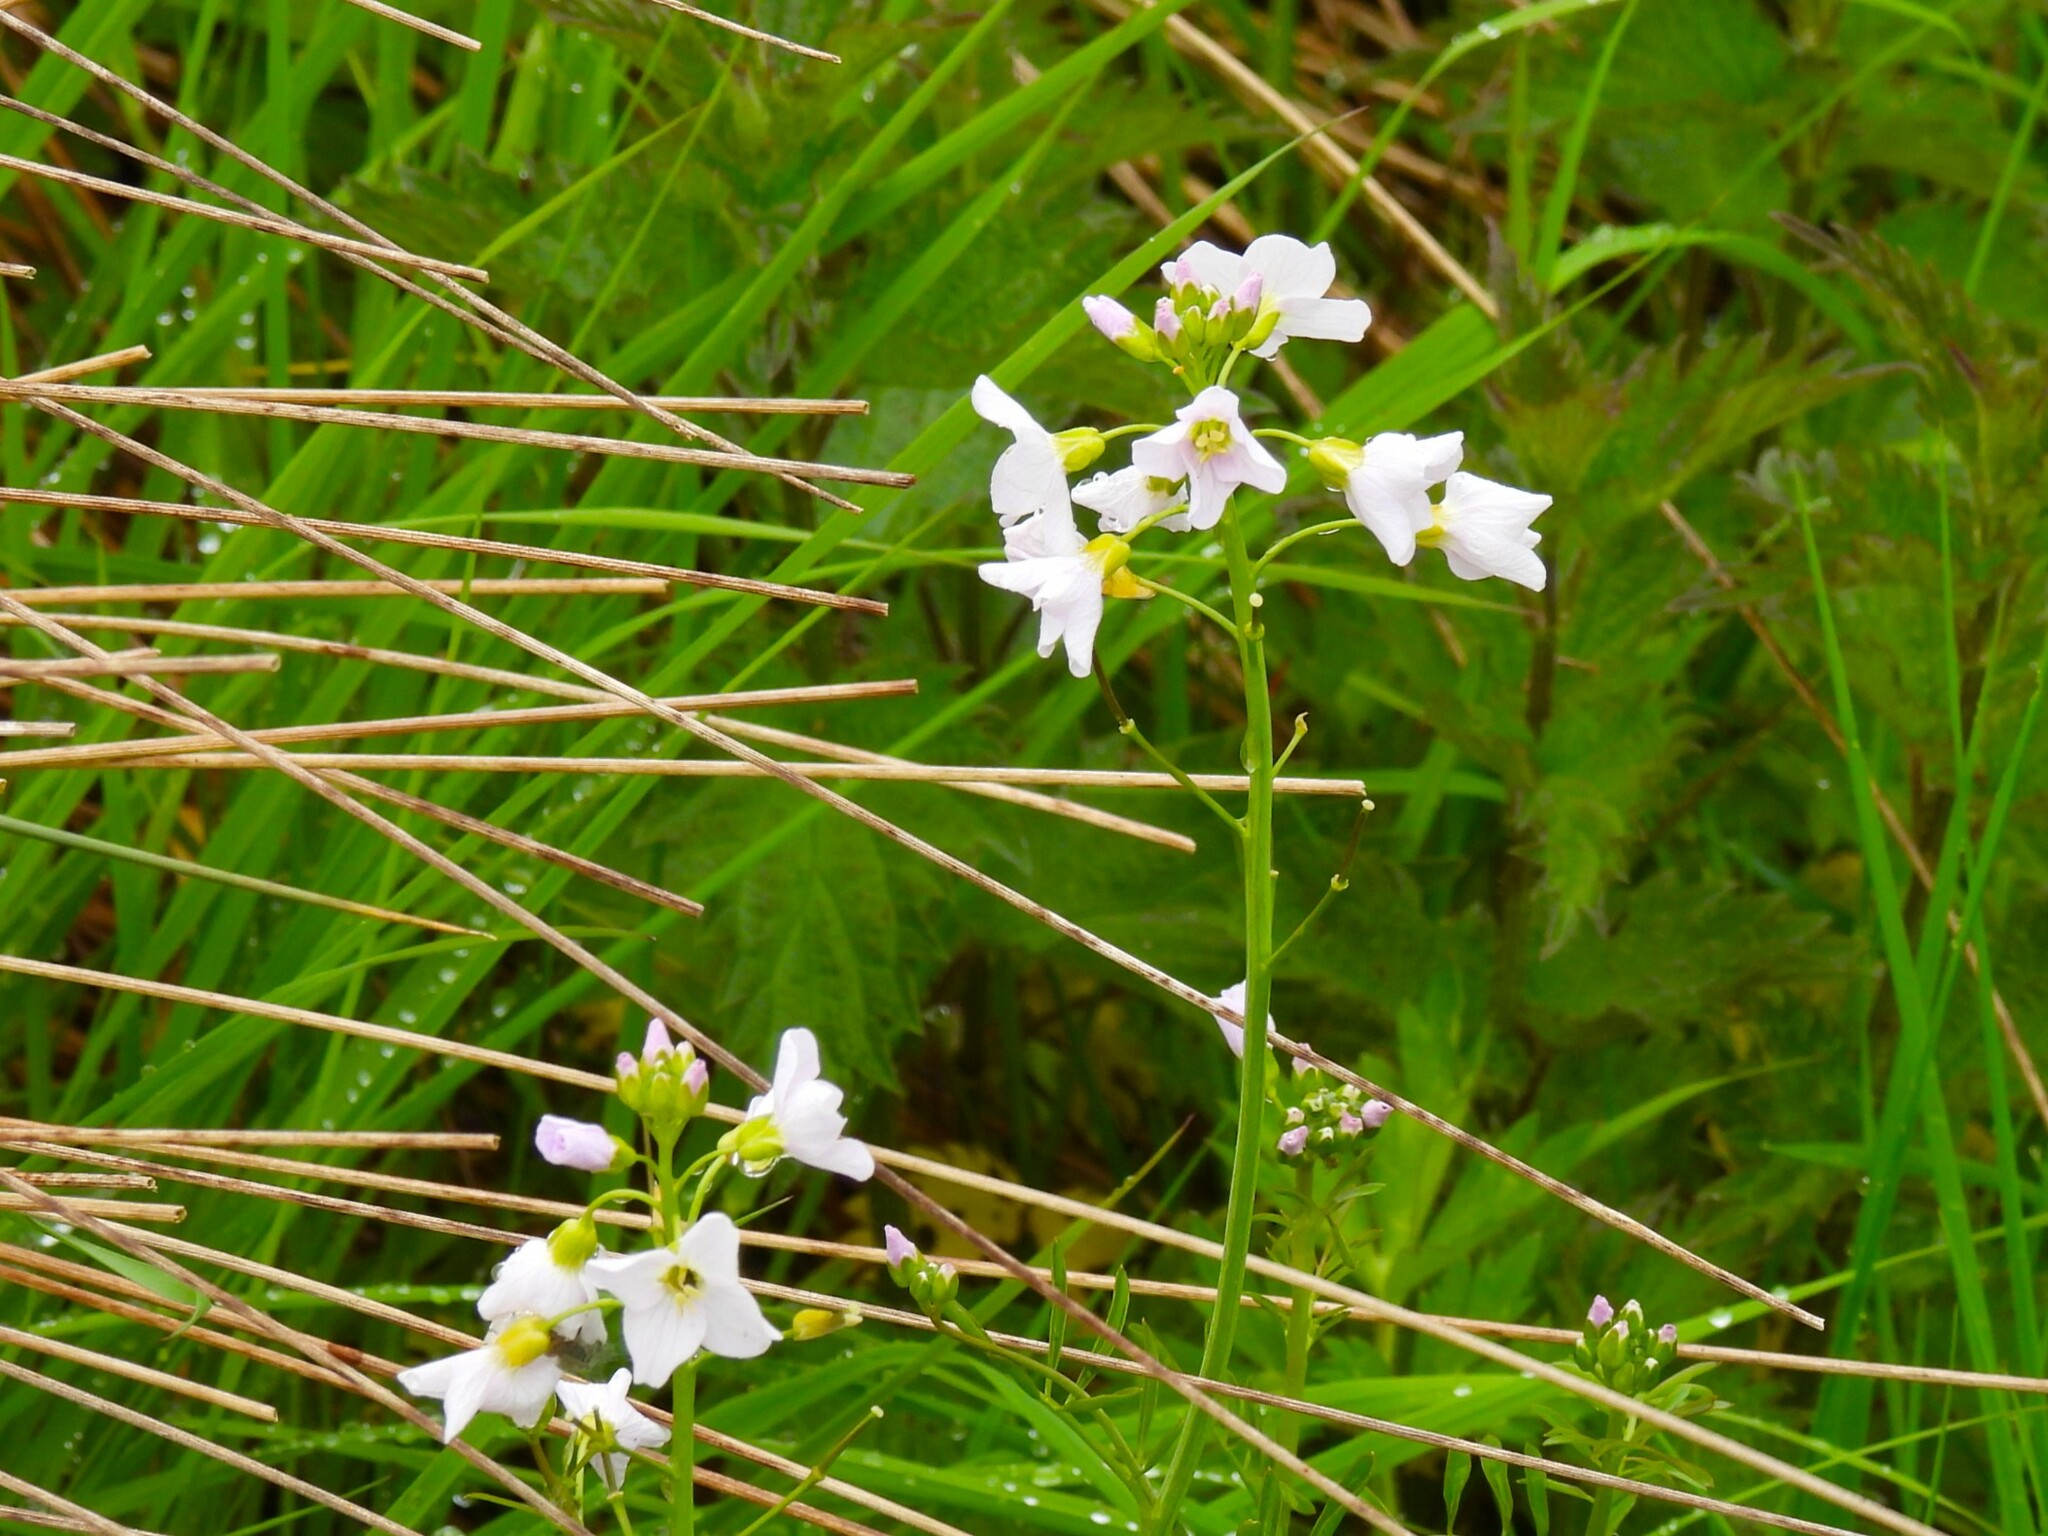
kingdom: Plantae
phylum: Tracheophyta
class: Magnoliopsida
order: Brassicales
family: Brassicaceae
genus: Cardamine
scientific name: Cardamine pratensis
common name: Cuckoo flower
